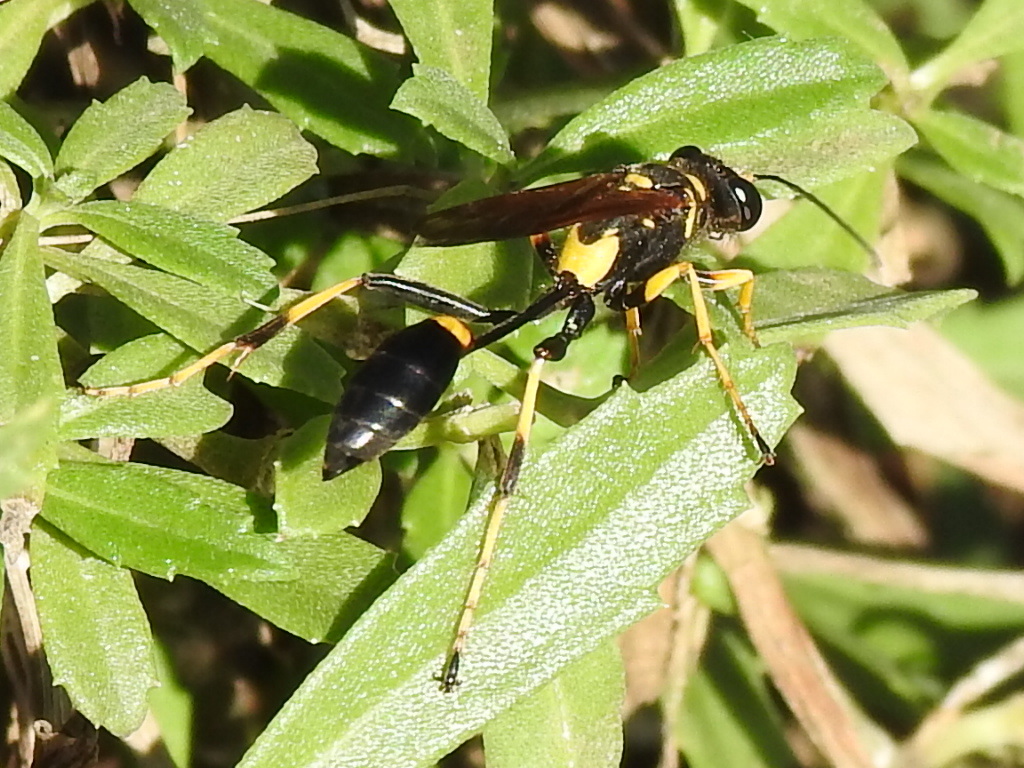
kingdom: Animalia
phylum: Arthropoda
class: Insecta
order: Hymenoptera
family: Sphecidae
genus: Sceliphron
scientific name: Sceliphron caementarium
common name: Mud dauber
